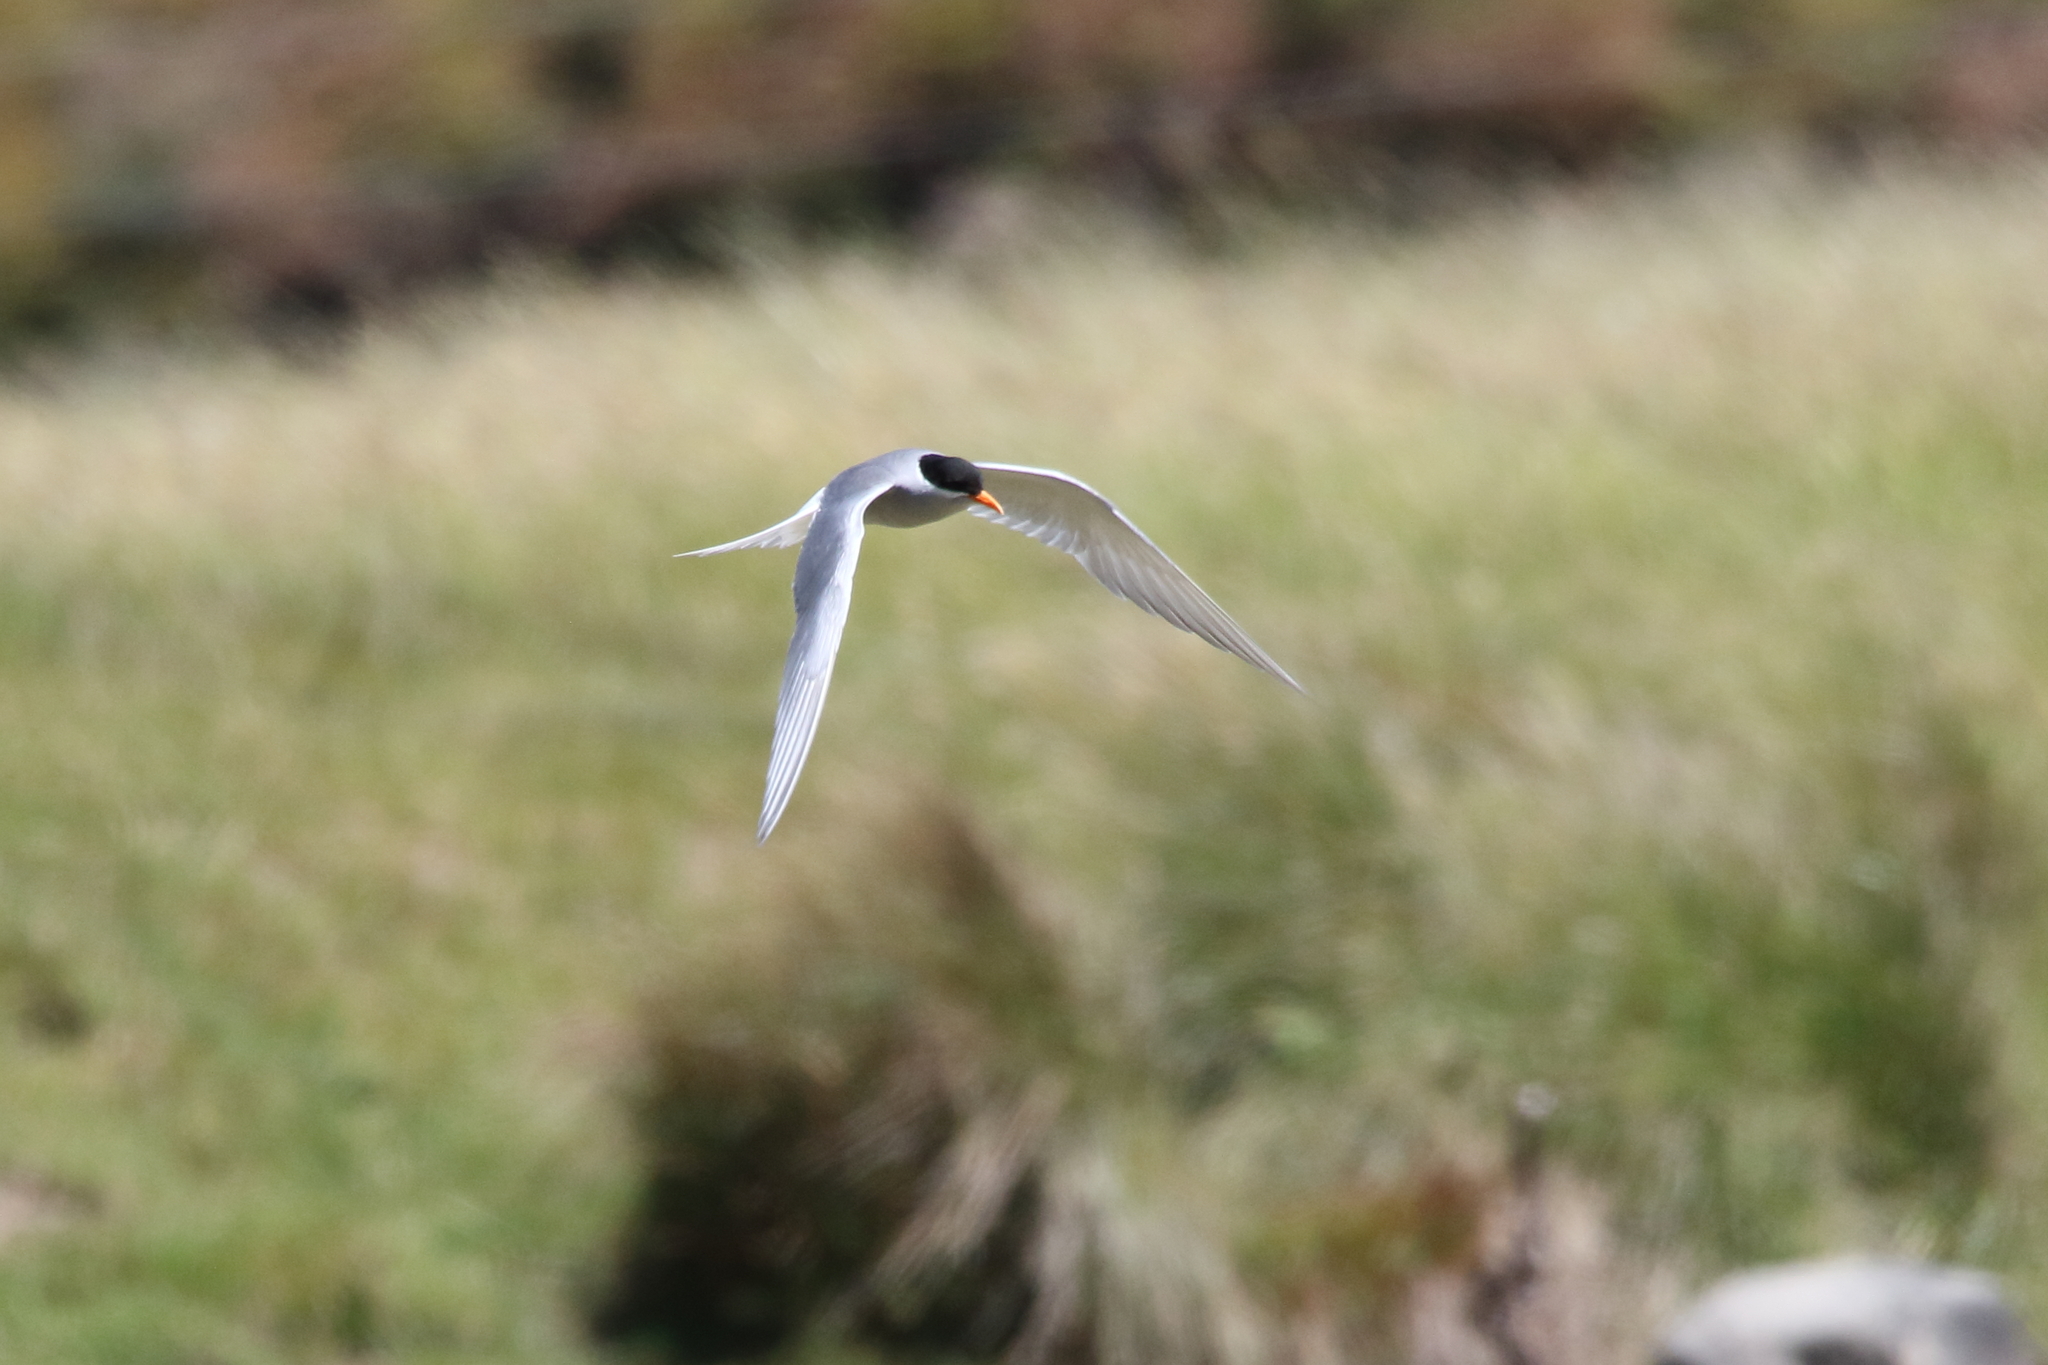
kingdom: Animalia
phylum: Chordata
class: Aves
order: Charadriiformes
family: Laridae
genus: Chlidonias
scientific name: Chlidonias albostriatus
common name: Black-fronted tern
